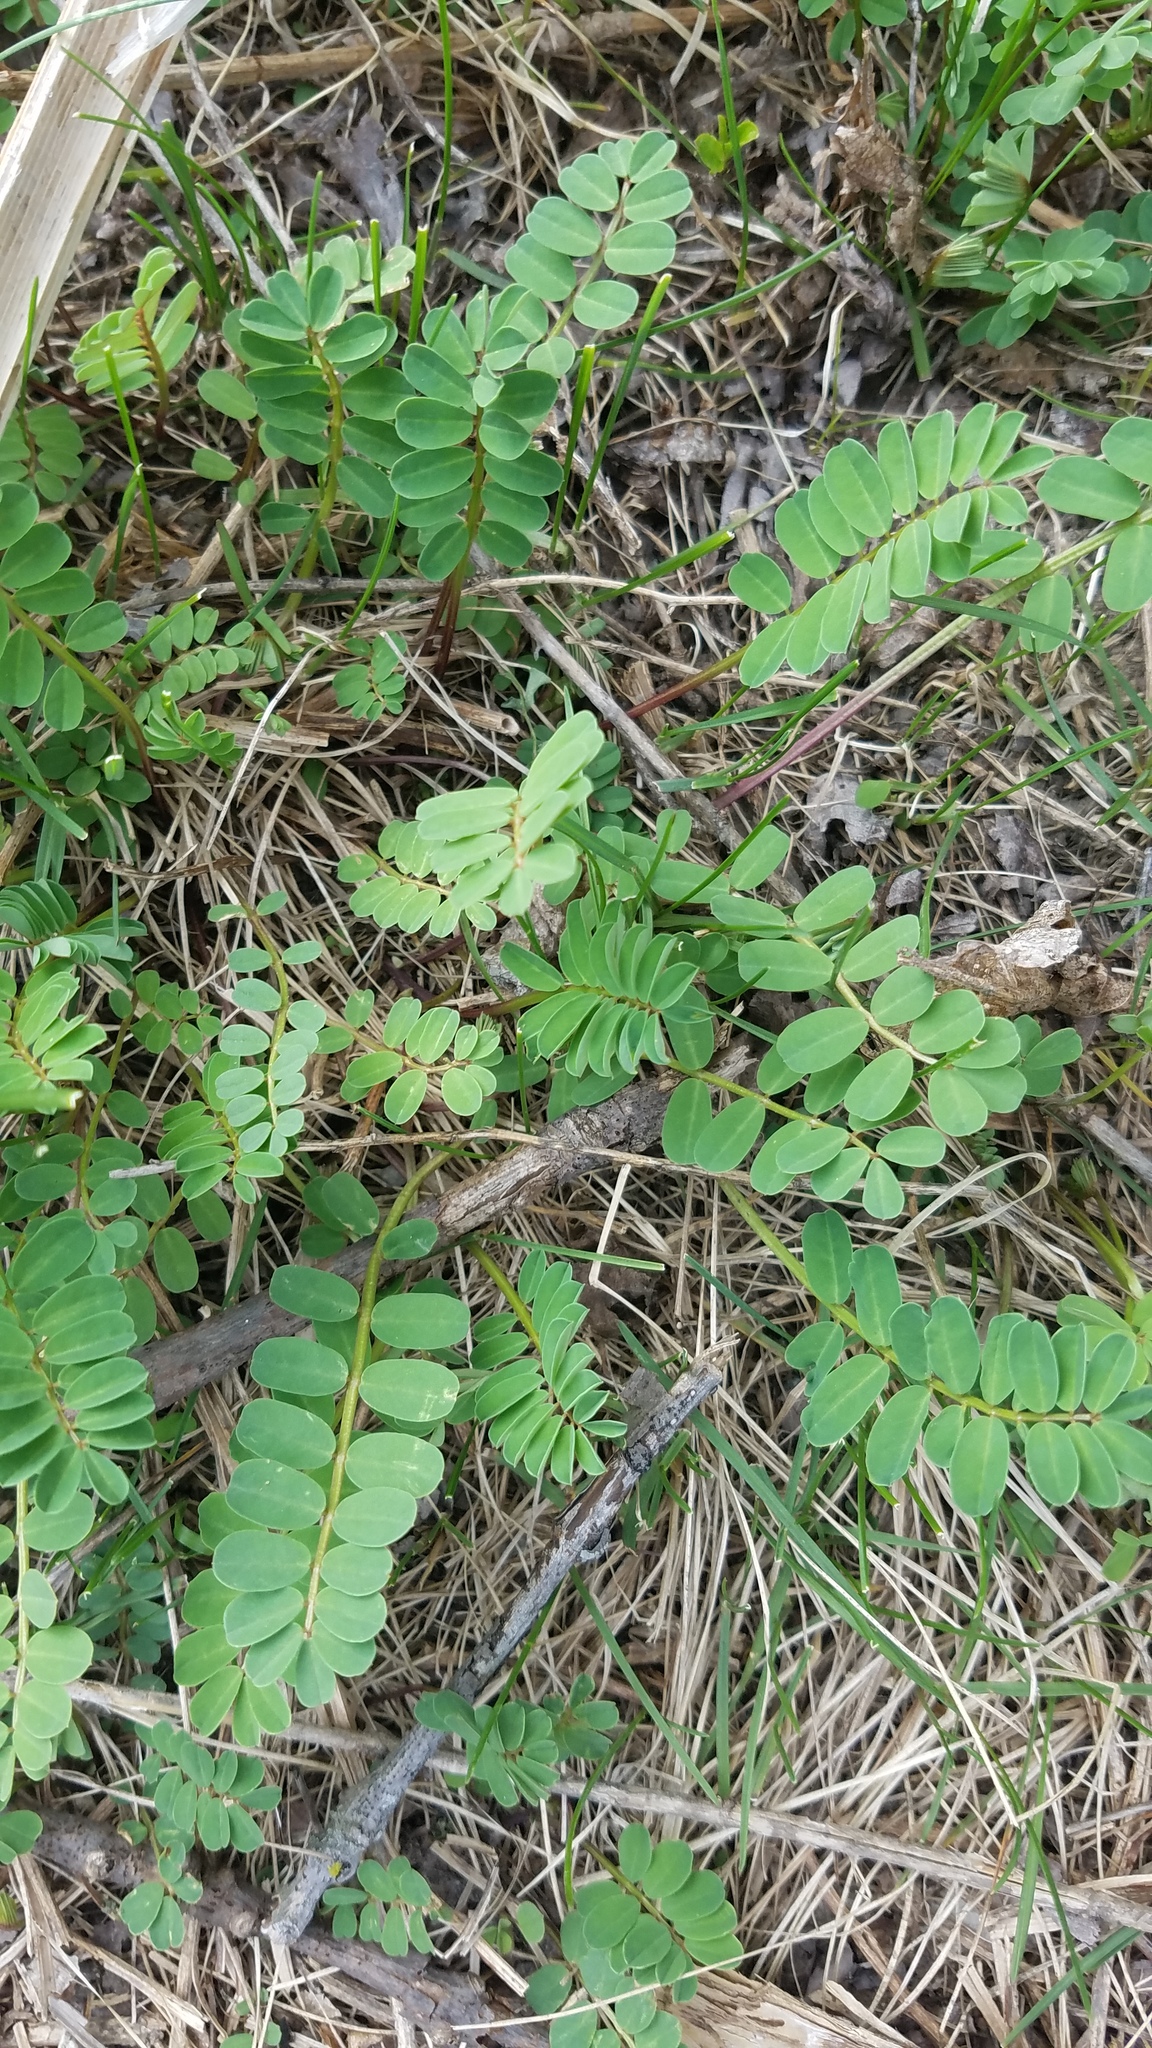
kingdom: Plantae
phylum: Tracheophyta
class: Magnoliopsida
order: Fabales
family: Fabaceae
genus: Coronilla
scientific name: Coronilla varia
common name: Crownvetch
